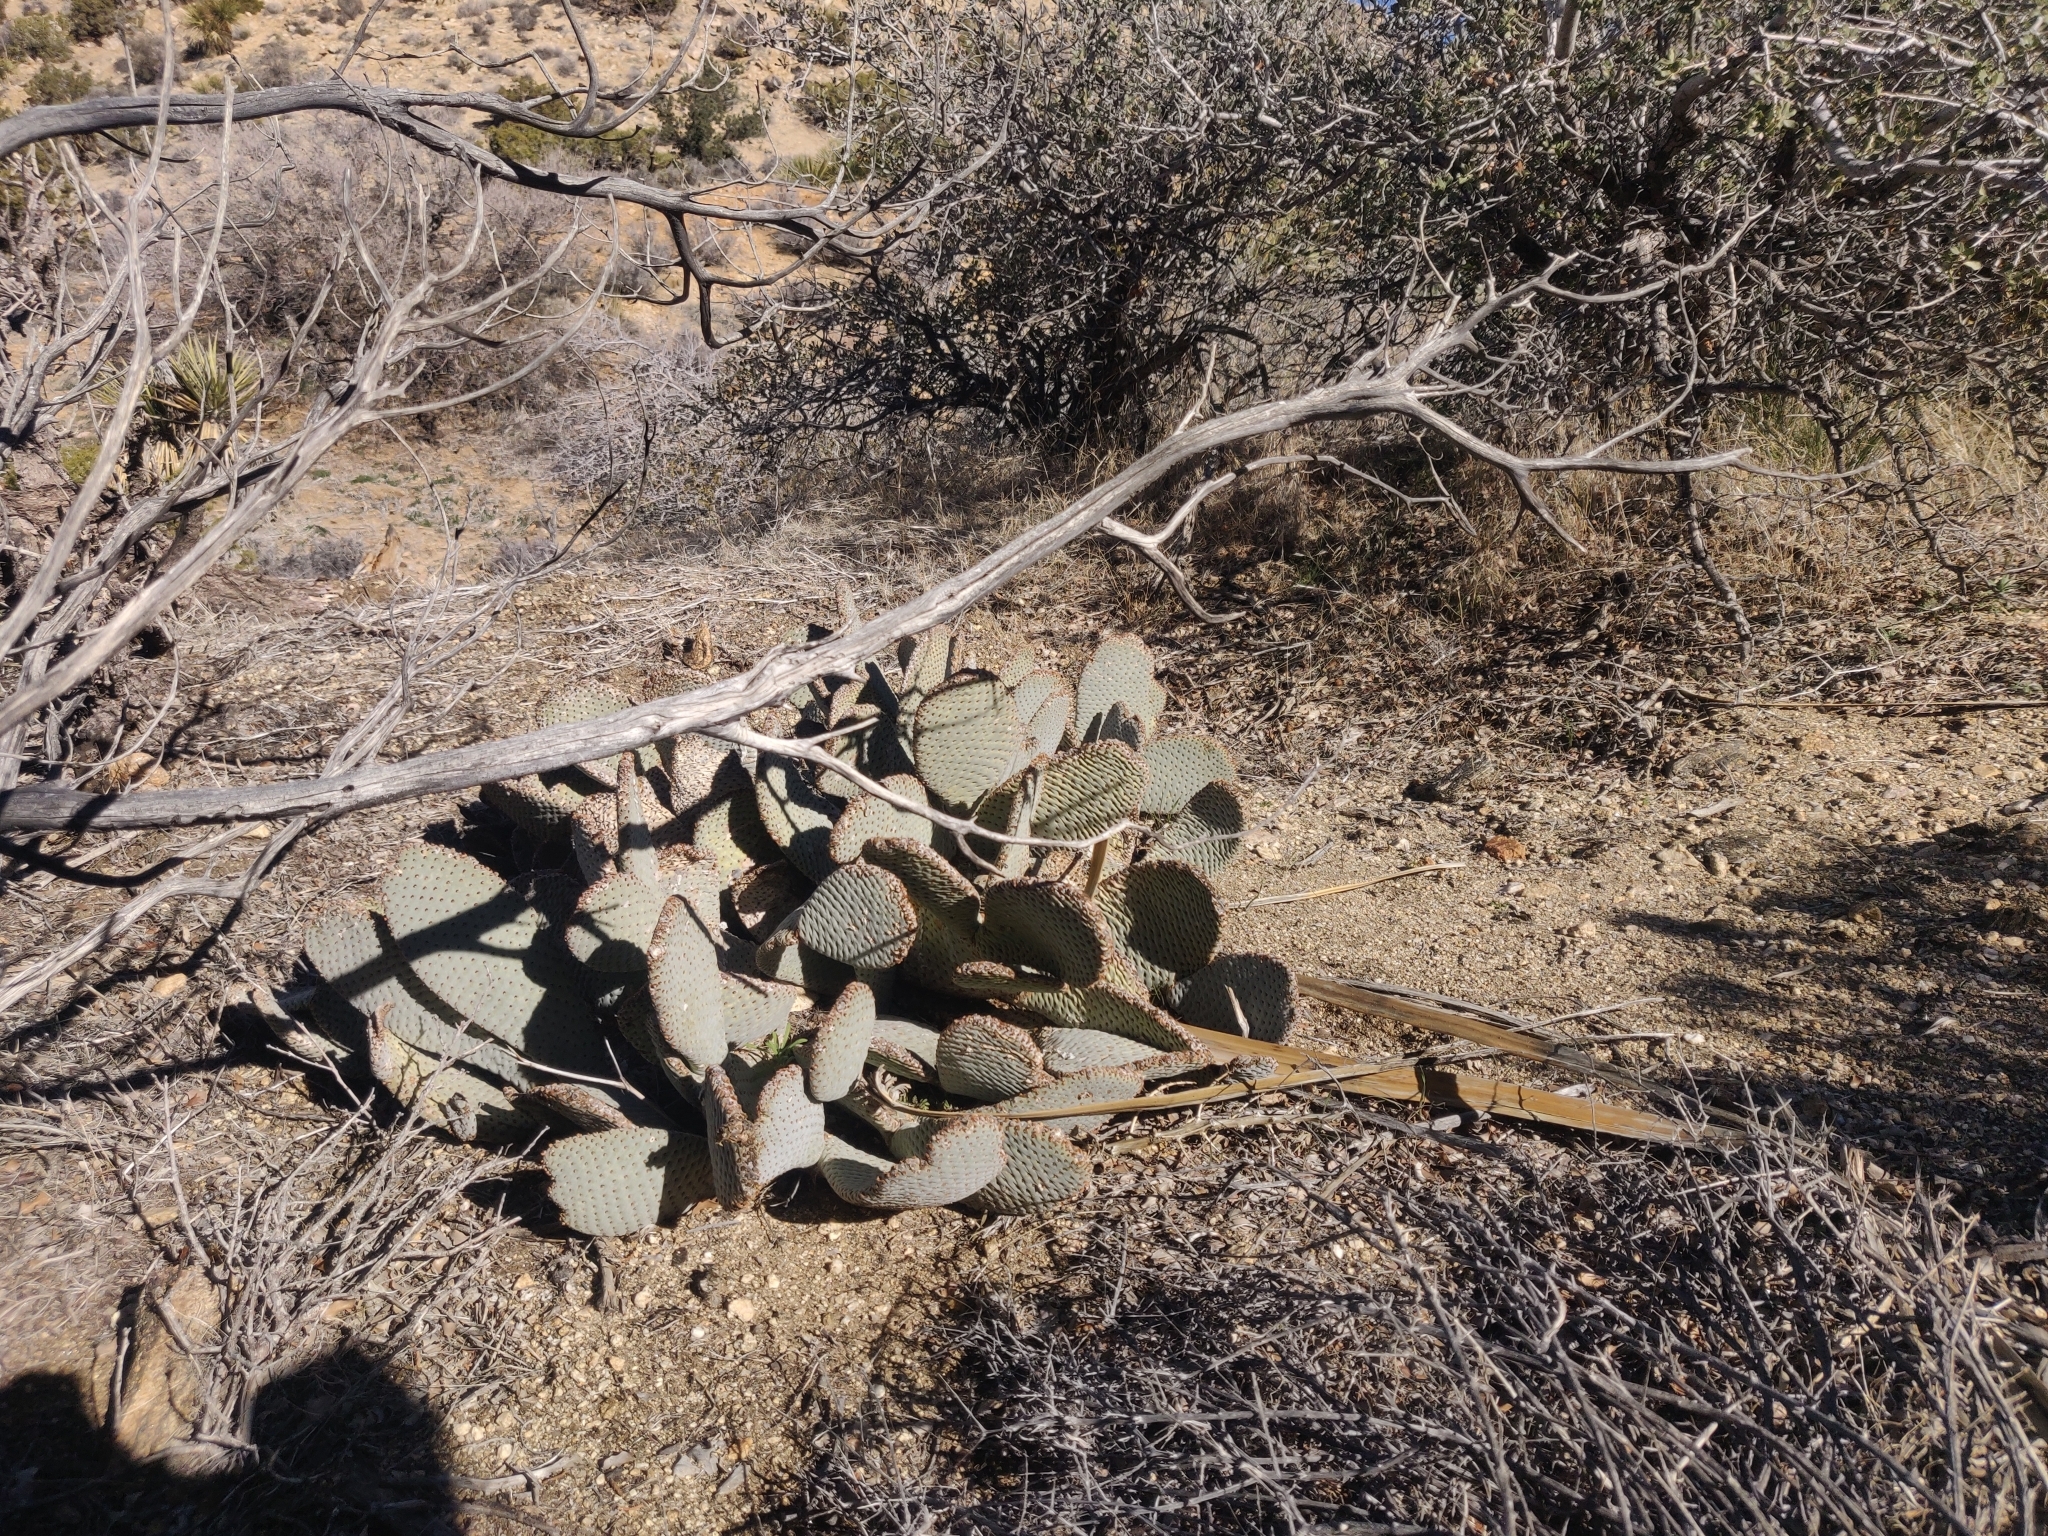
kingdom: Plantae
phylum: Tracheophyta
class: Magnoliopsida
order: Caryophyllales
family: Cactaceae
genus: Opuntia
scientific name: Opuntia basilaris
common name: Beavertail prickly-pear
